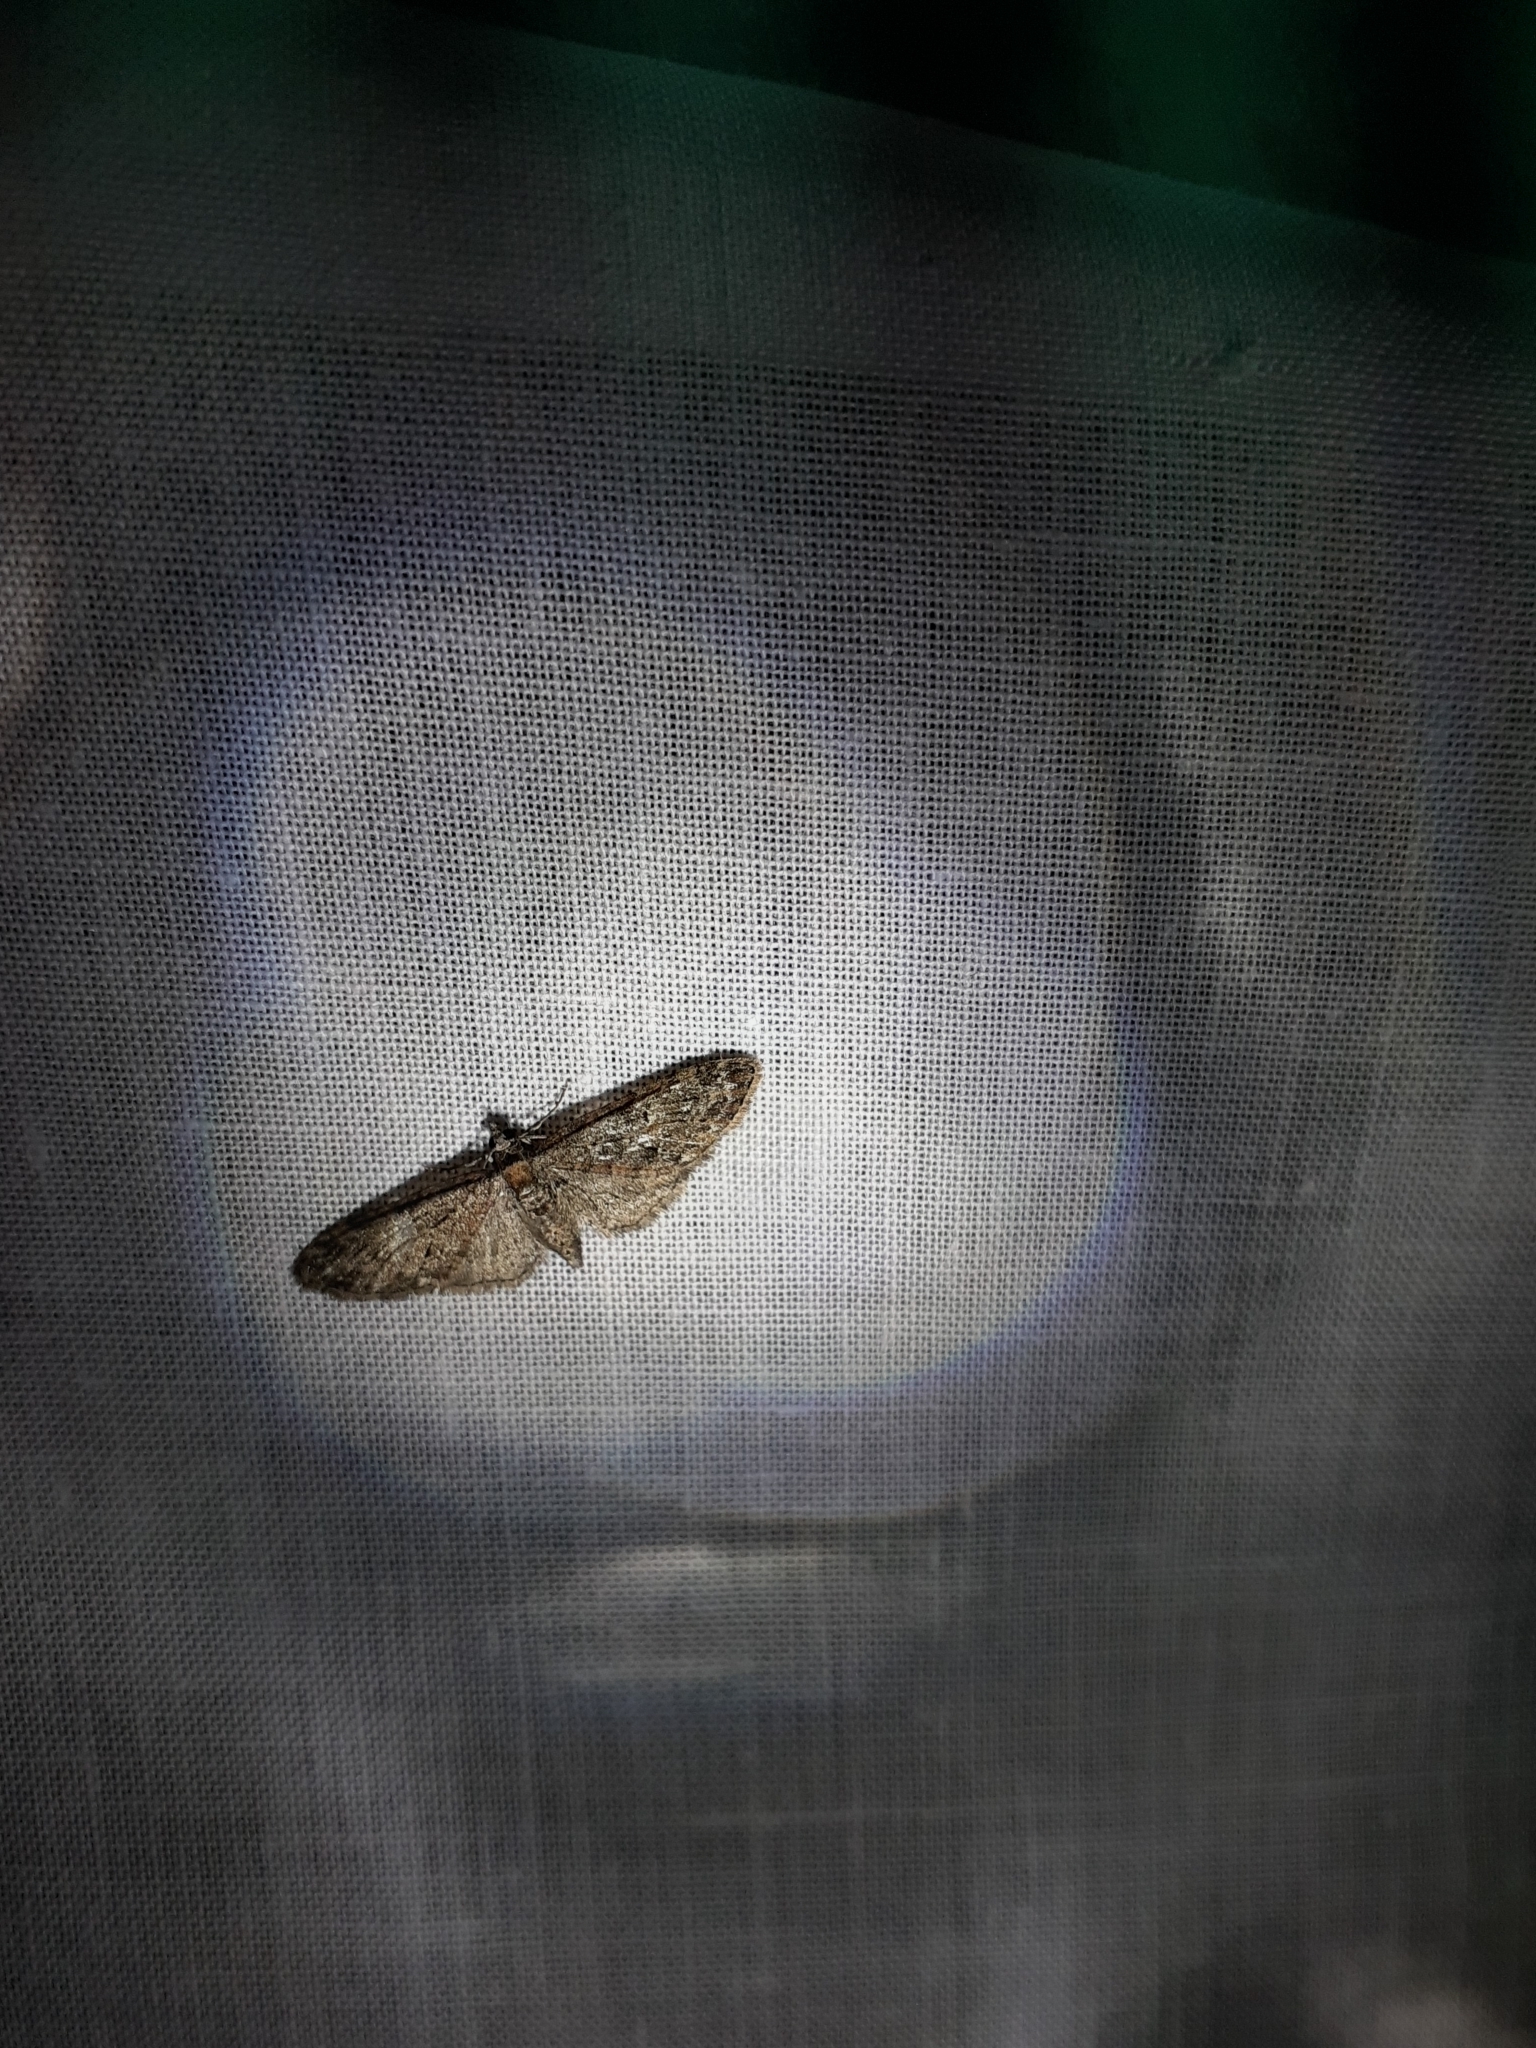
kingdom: Animalia
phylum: Arthropoda
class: Insecta
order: Lepidoptera
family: Geometridae
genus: Eupithecia
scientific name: Eupithecia abbreviata
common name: Brindled pug
